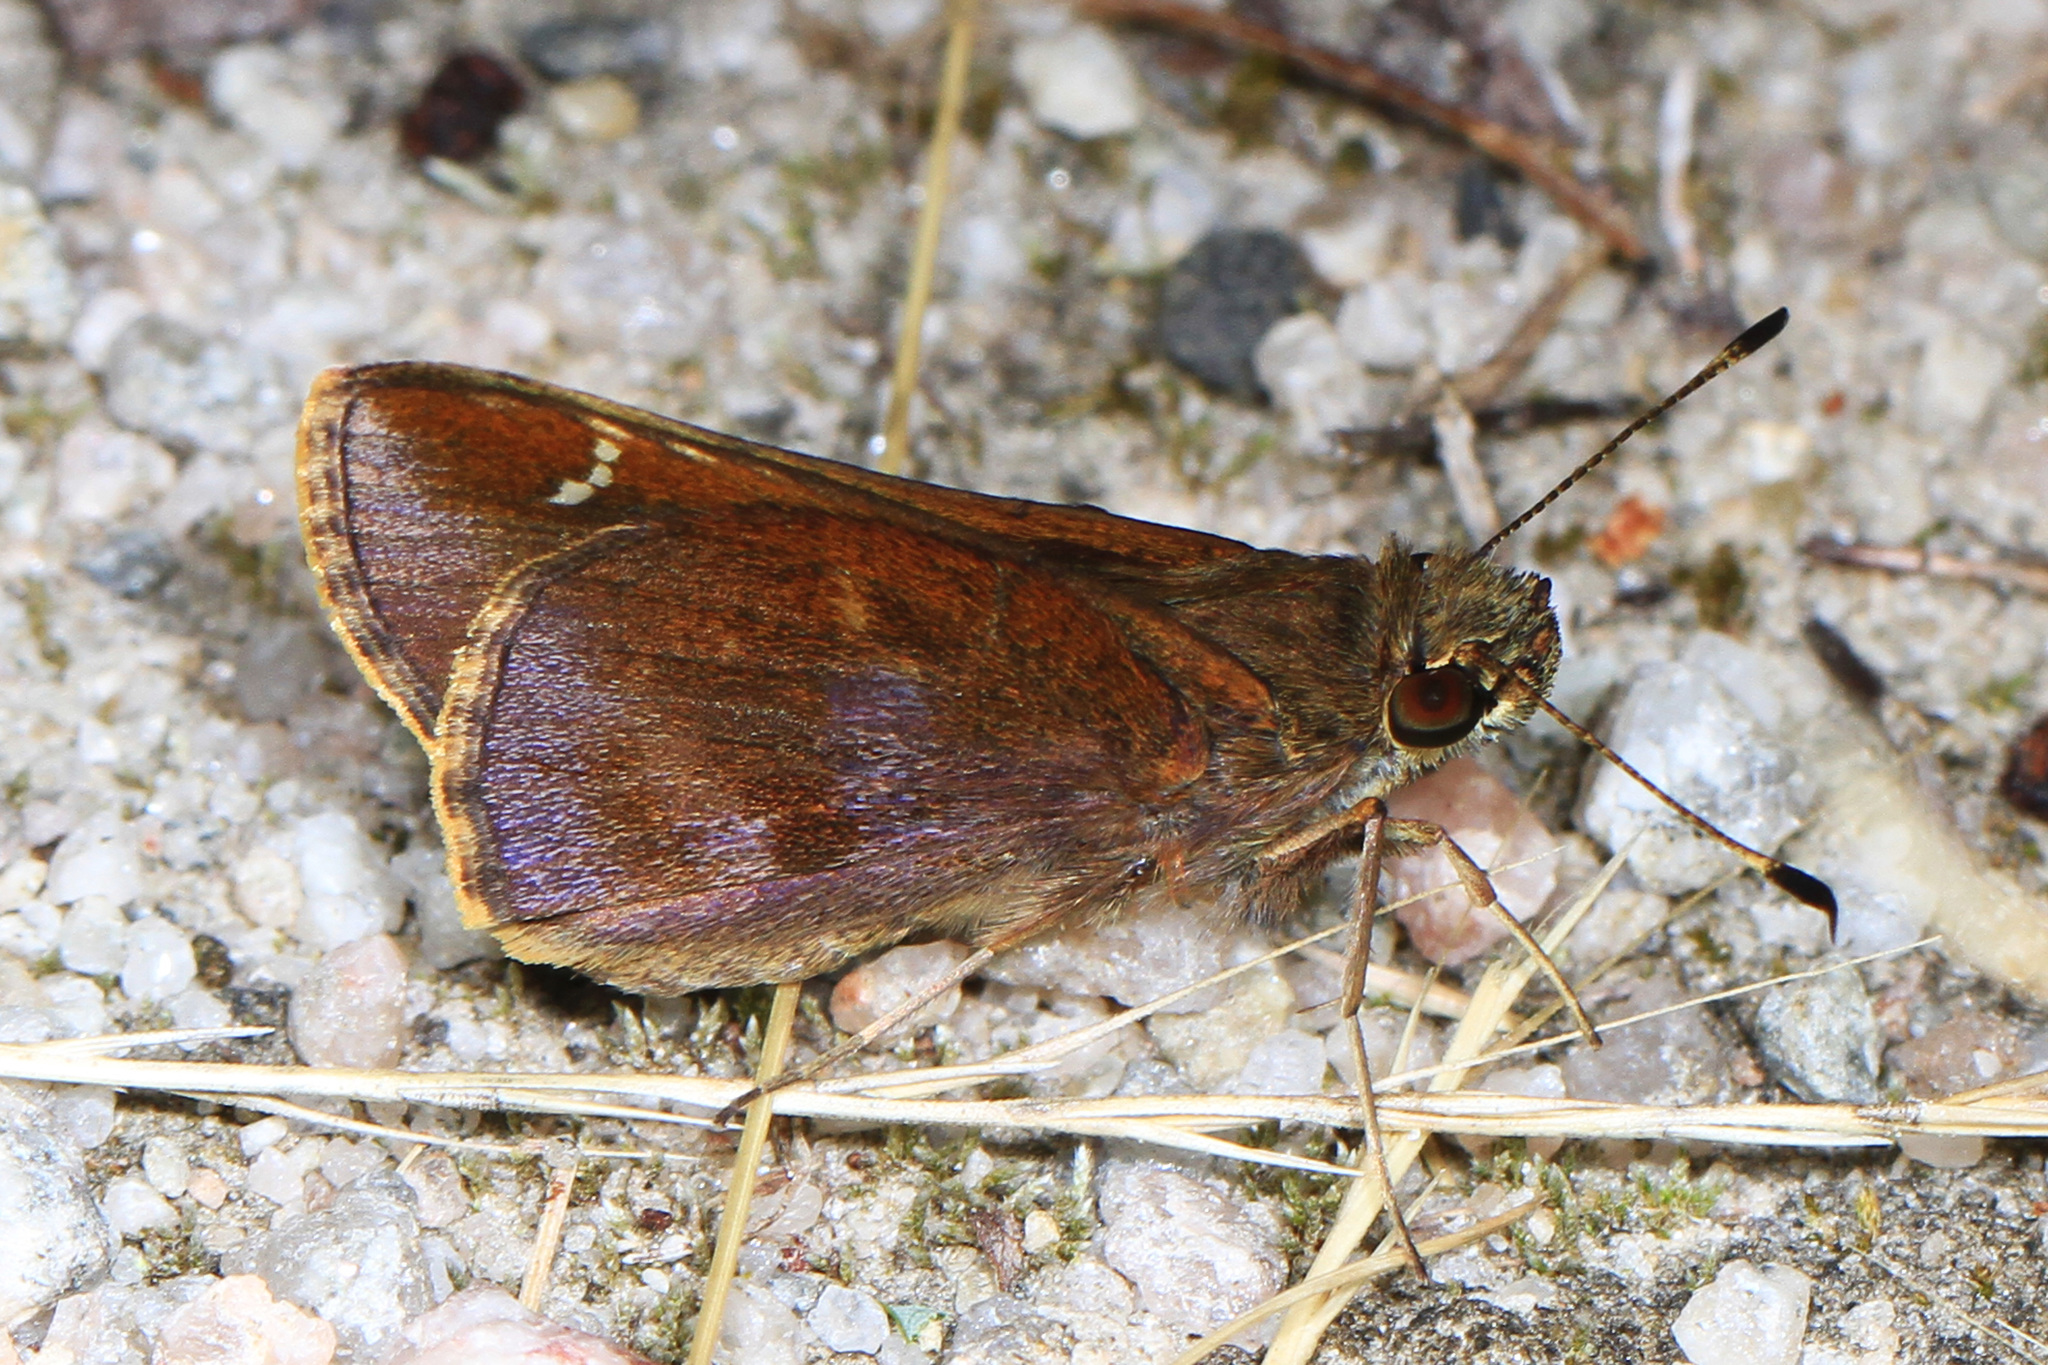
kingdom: Animalia
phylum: Arthropoda
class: Insecta
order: Lepidoptera
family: Hesperiidae
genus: Lerema
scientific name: Lerema accius
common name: Clouded skipper
